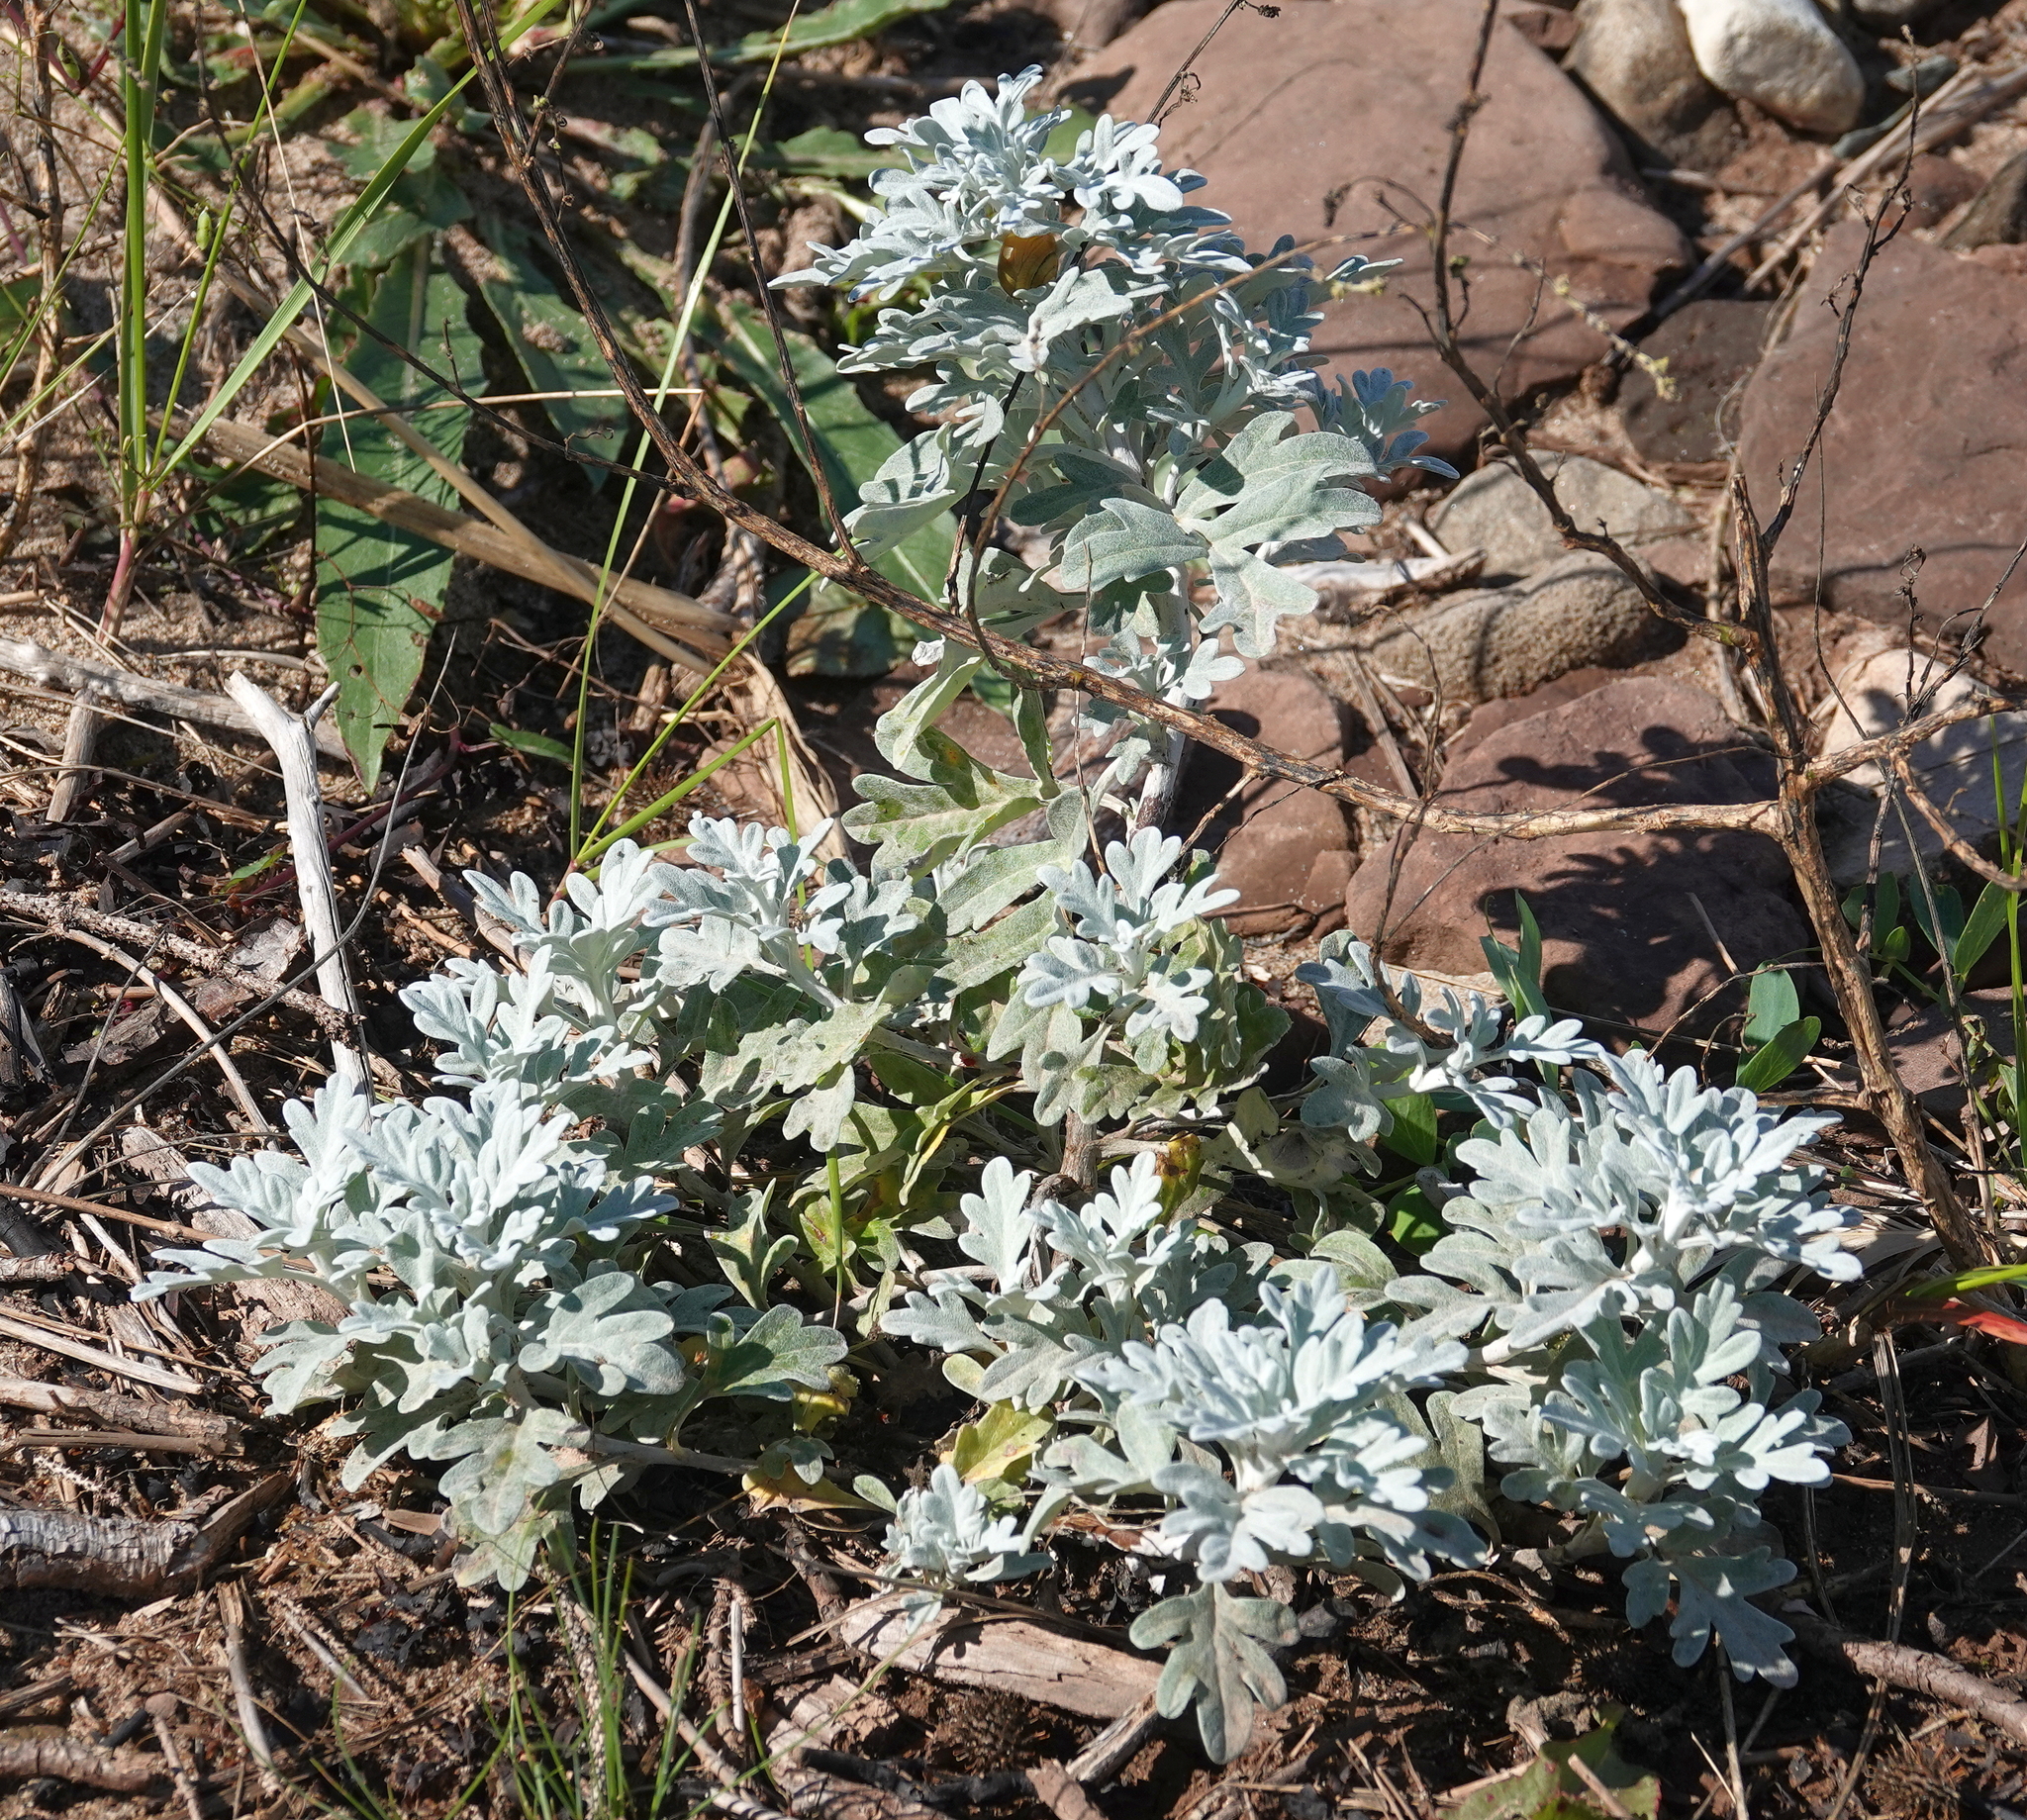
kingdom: Plantae
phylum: Tracheophyta
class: Magnoliopsida
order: Asterales
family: Asteraceae
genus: Artemisia
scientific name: Artemisia stelleriana
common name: Beach wormwood
